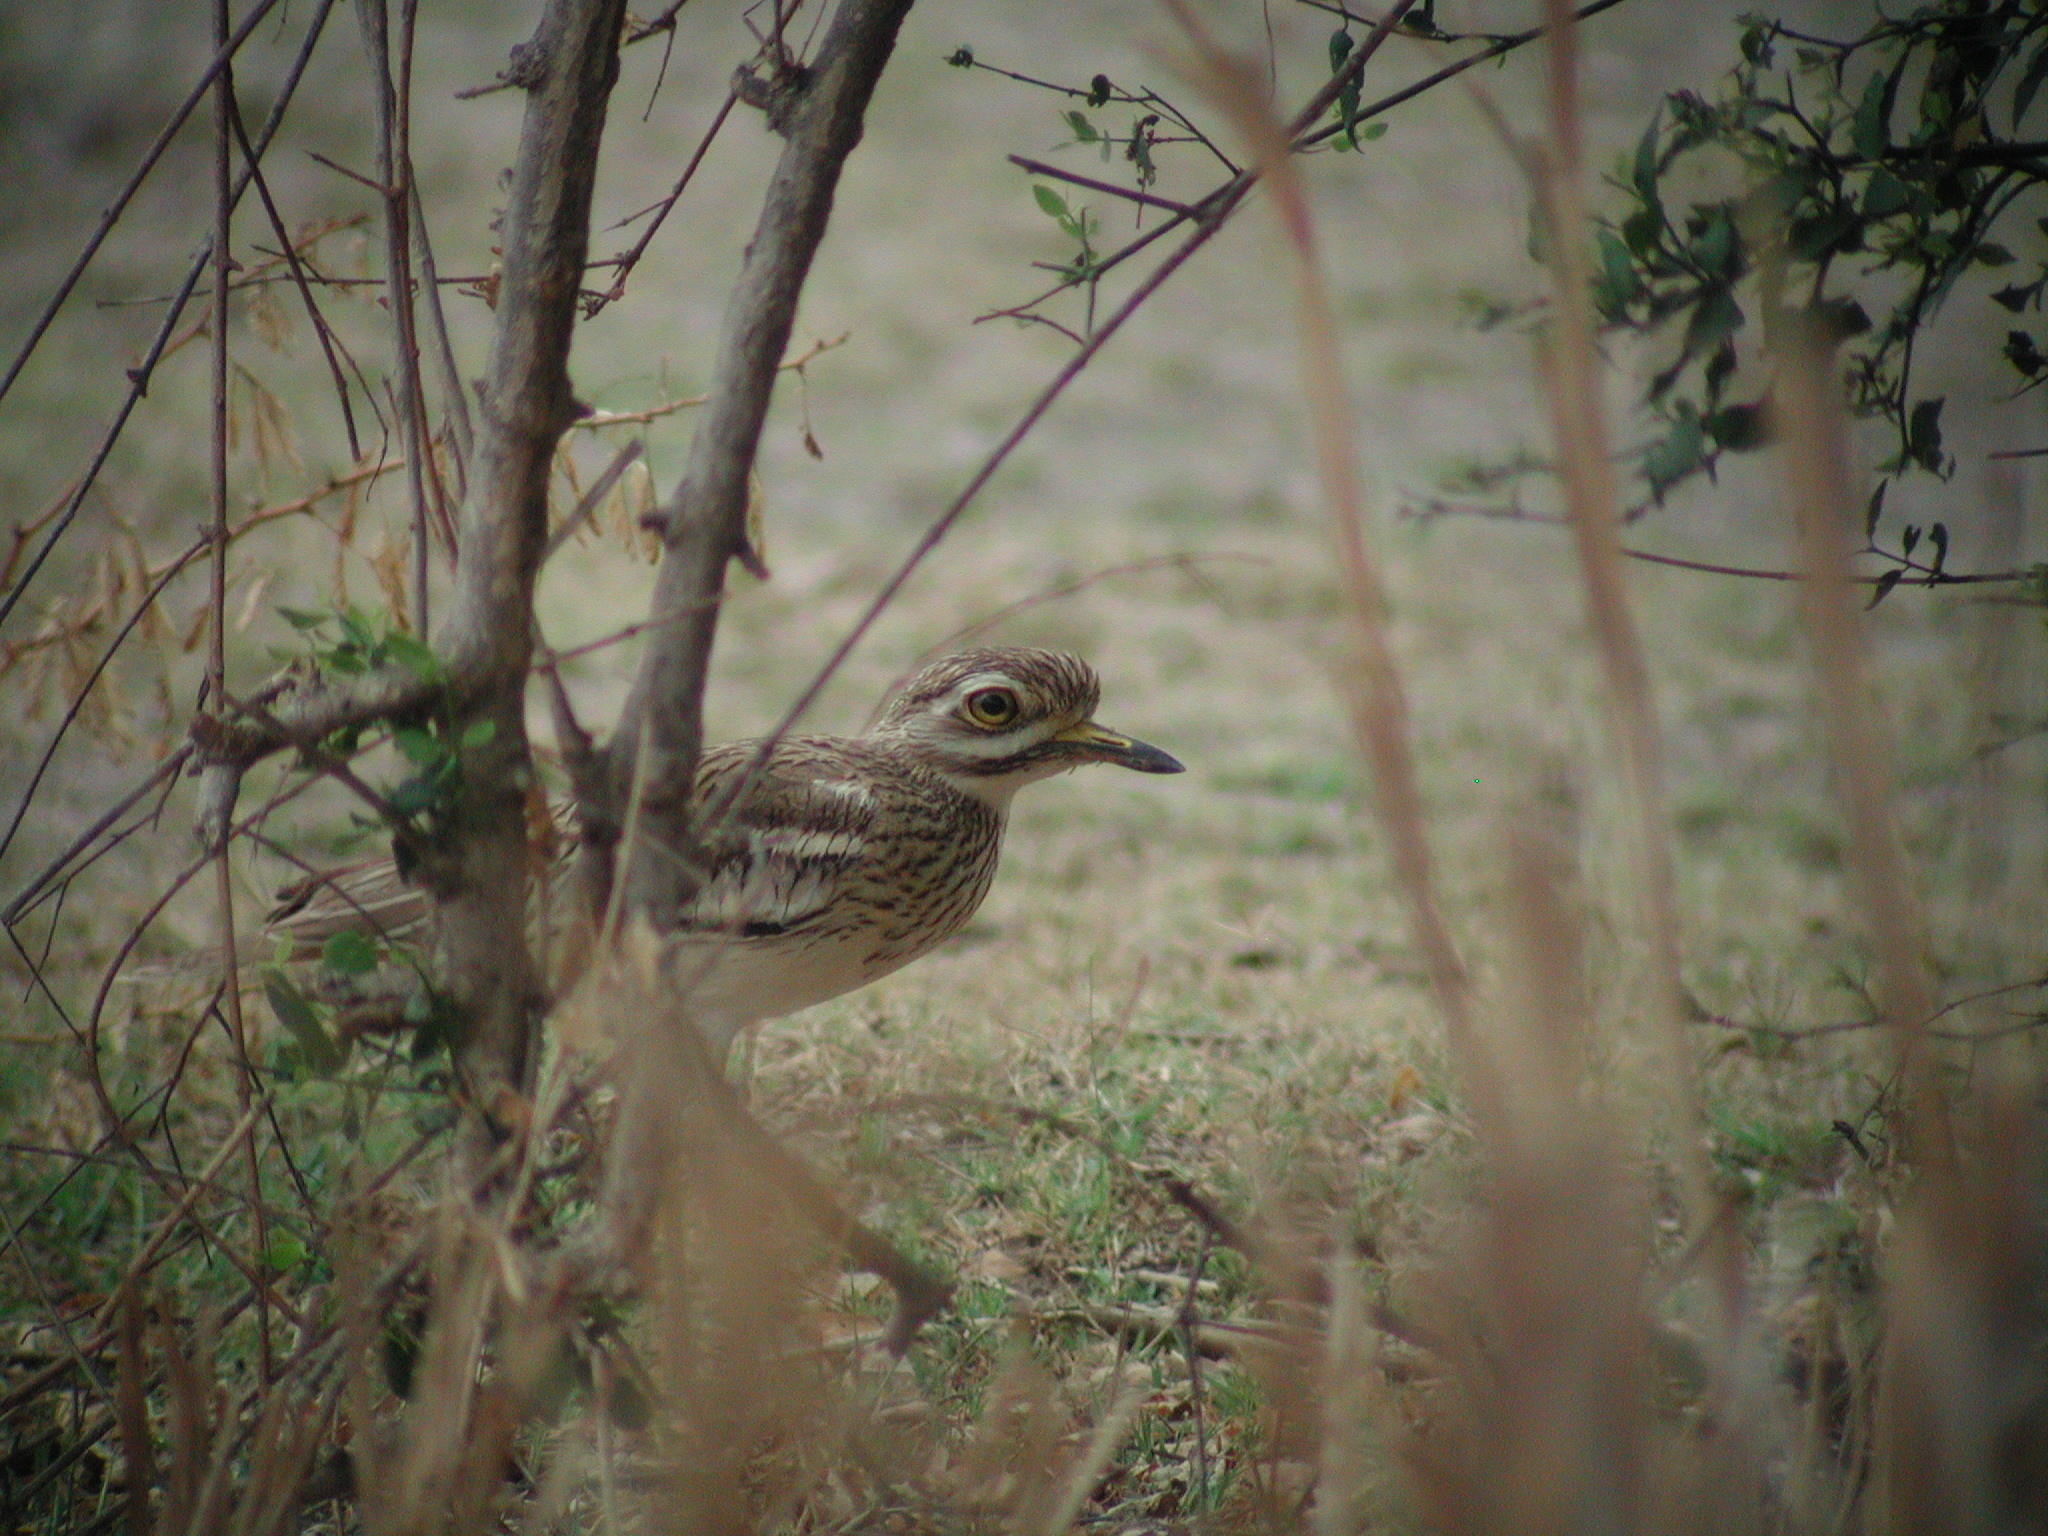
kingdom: Animalia
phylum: Chordata
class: Aves
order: Charadriiformes
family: Burhinidae
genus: Burhinus
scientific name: Burhinus indicus
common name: Indian thick-knee
